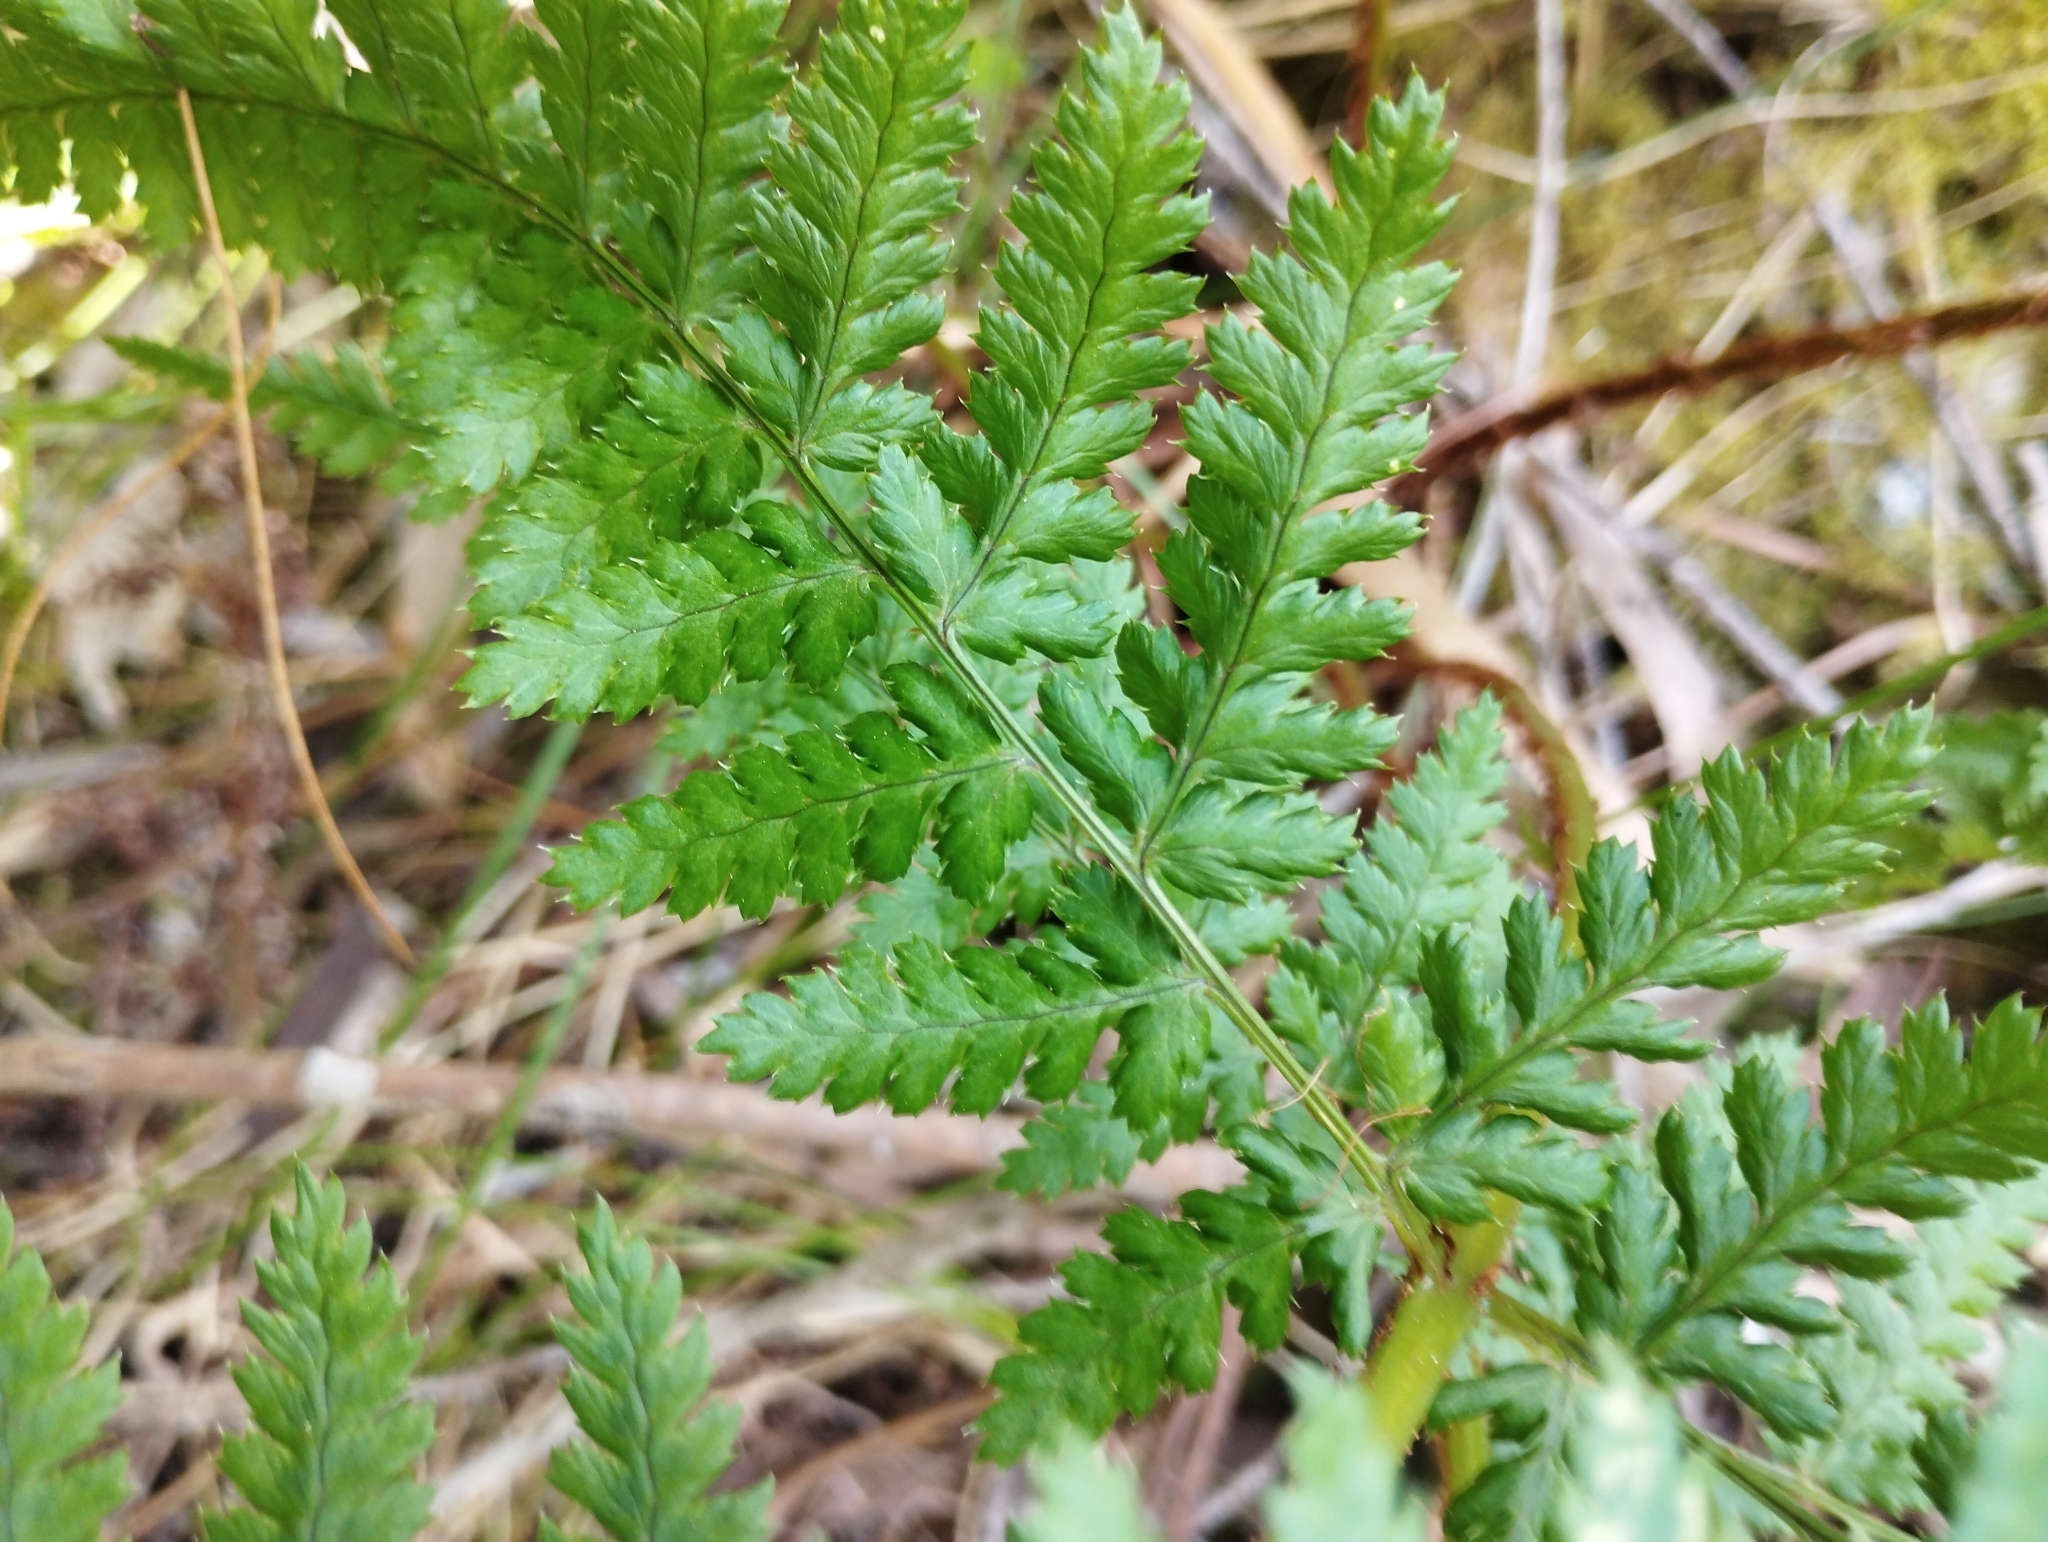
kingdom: Plantae
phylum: Tracheophyta
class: Polypodiopsida
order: Polypodiales
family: Dryopteridaceae
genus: Dryopteris
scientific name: Dryopteris dilatata
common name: Broad buckler-fern
